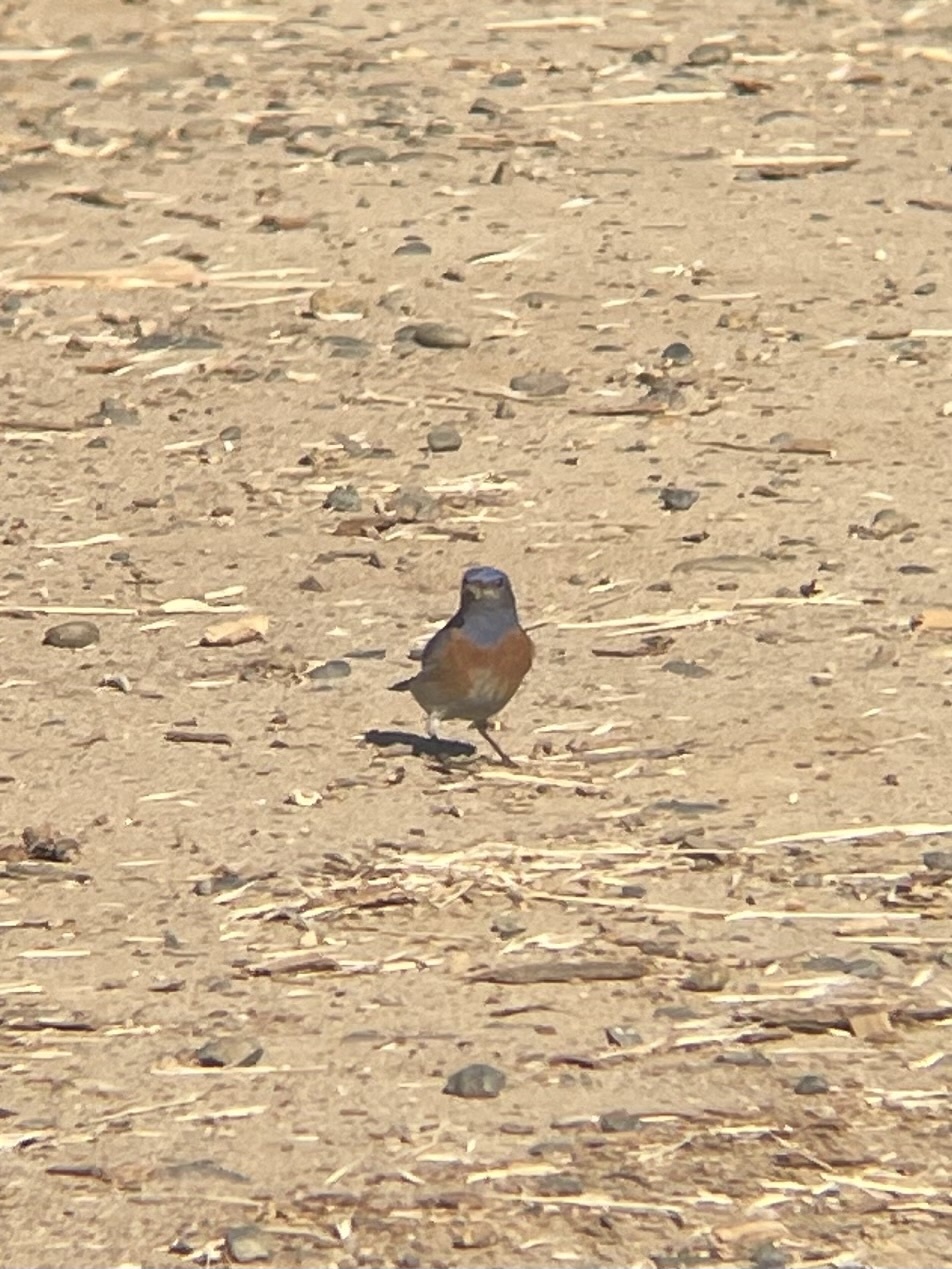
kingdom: Animalia
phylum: Chordata
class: Aves
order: Passeriformes
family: Turdidae
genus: Sialia
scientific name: Sialia mexicana
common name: Western bluebird
